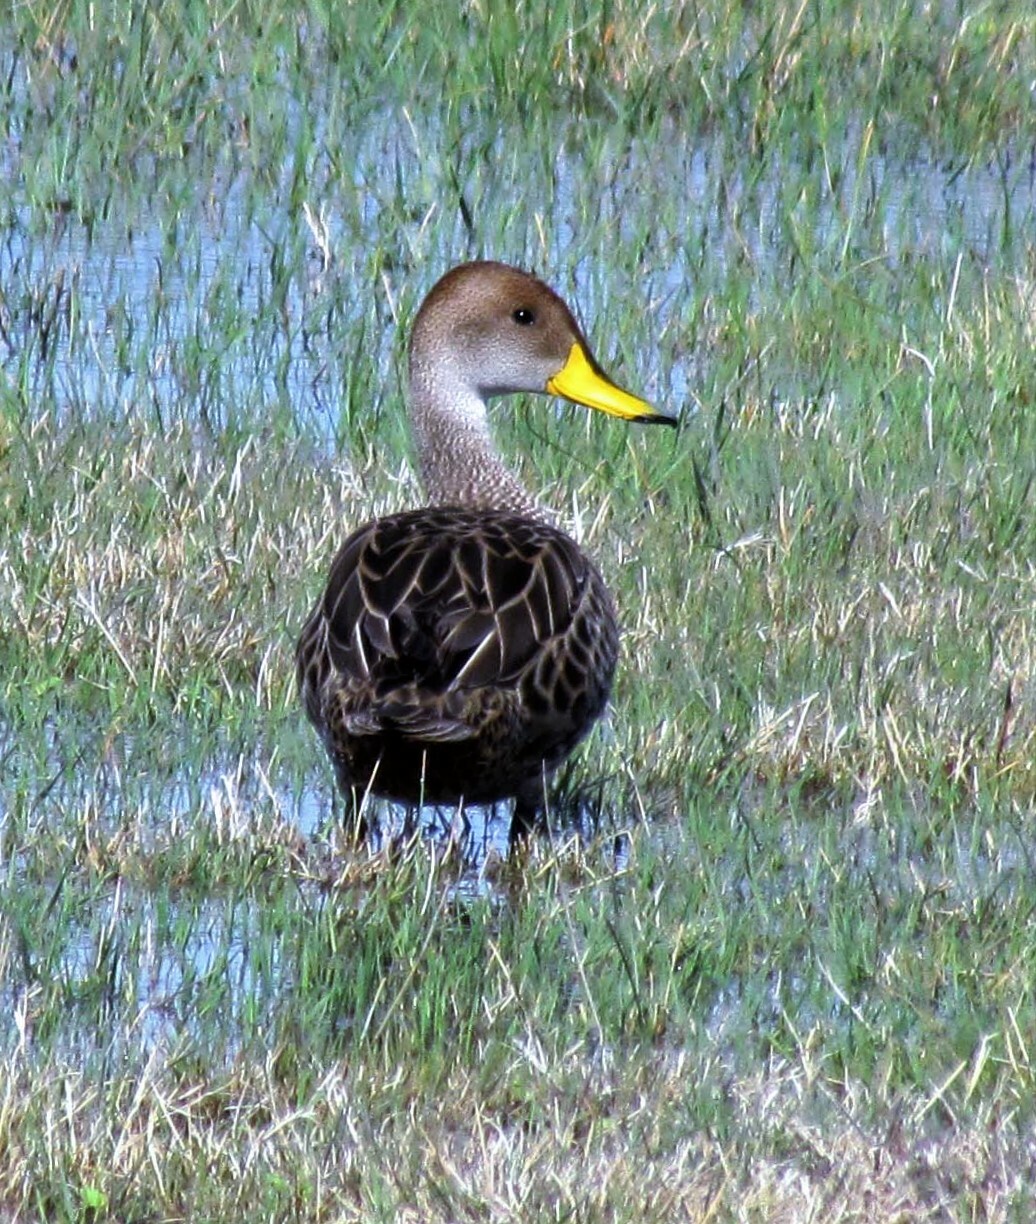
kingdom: Animalia
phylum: Chordata
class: Aves
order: Anseriformes
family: Anatidae
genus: Anas
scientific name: Anas georgica
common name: Yellow-billed pintail
